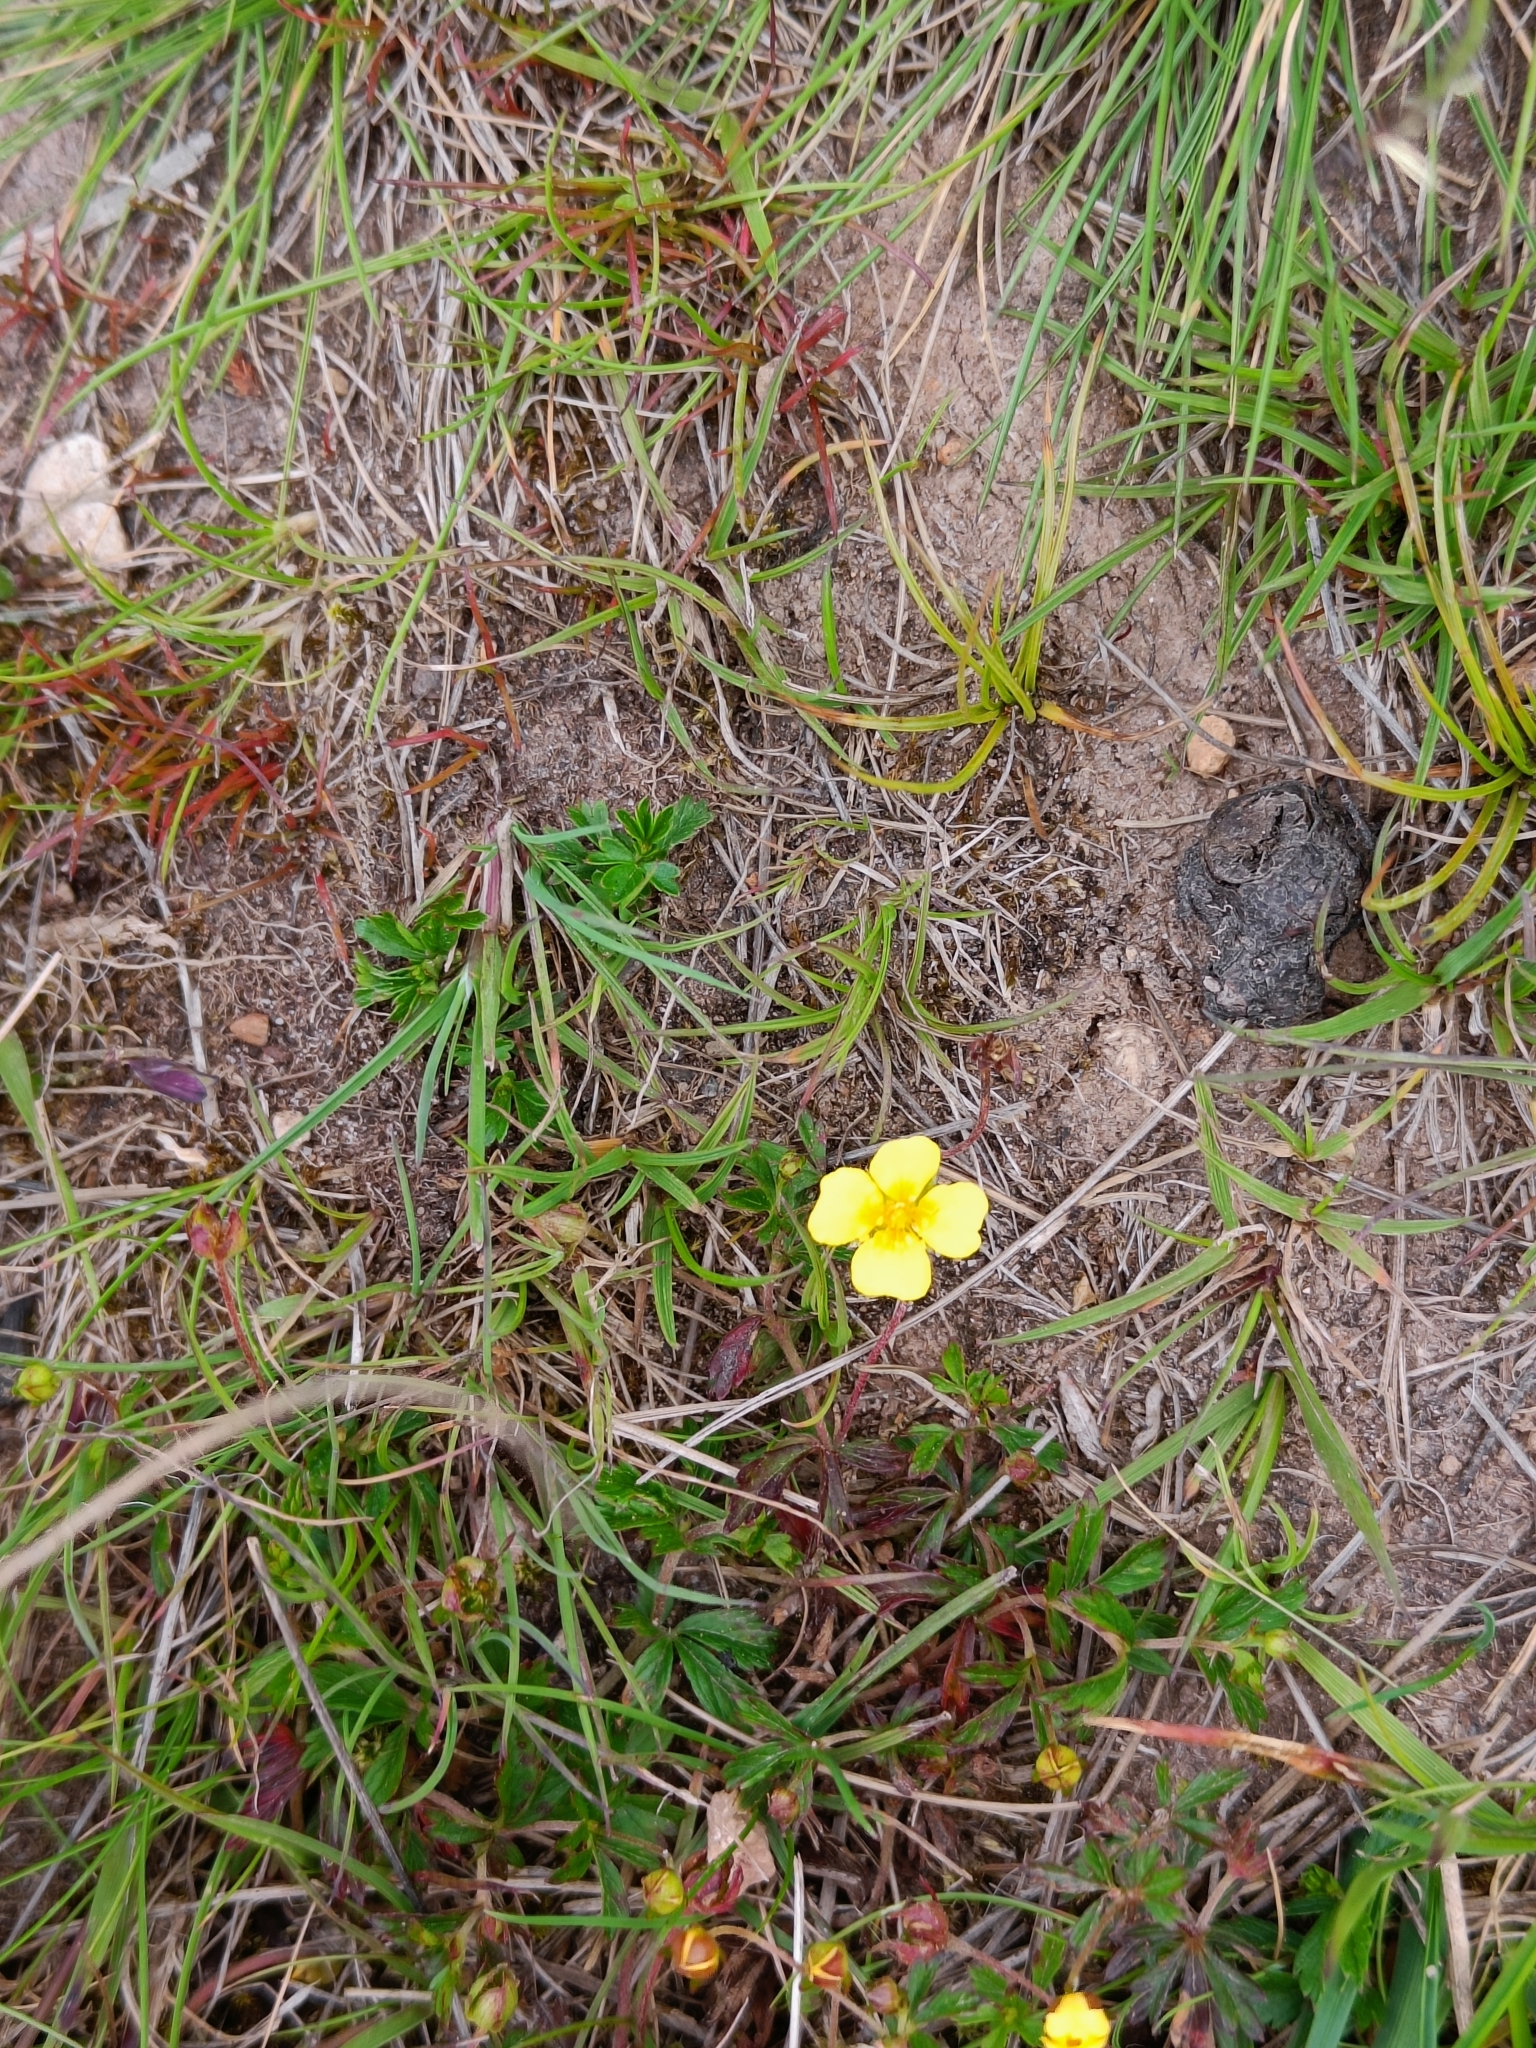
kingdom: Plantae
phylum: Tracheophyta
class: Magnoliopsida
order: Rosales
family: Rosaceae
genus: Potentilla
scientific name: Potentilla erecta
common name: Tormentil
